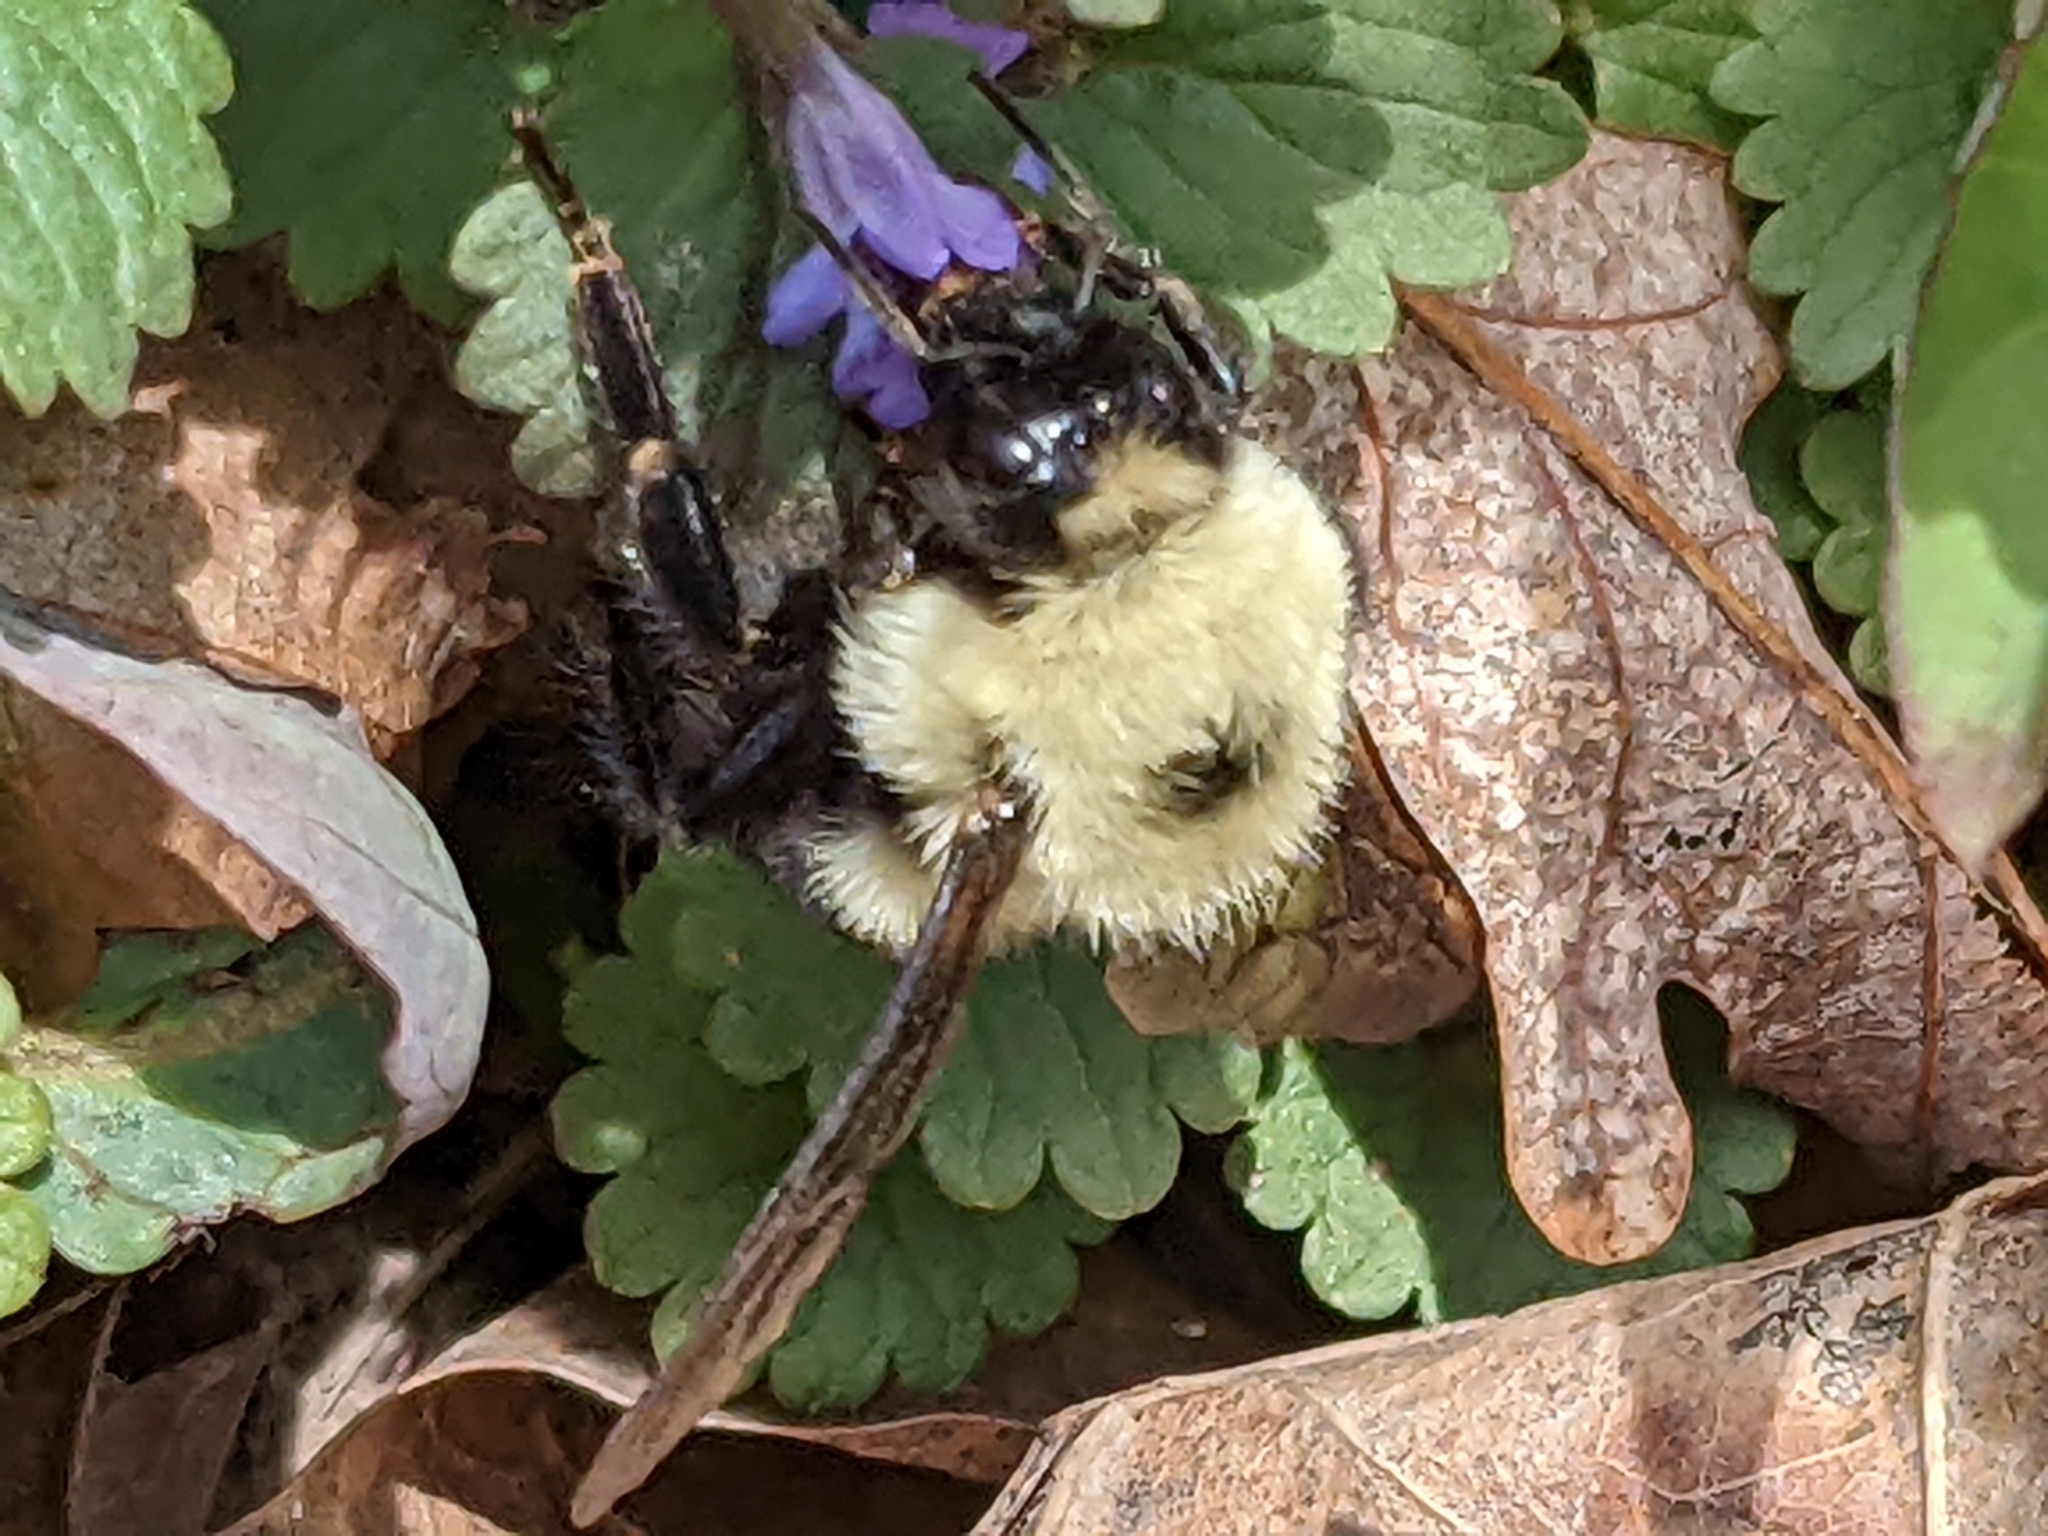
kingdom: Animalia
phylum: Arthropoda
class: Insecta
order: Hymenoptera
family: Apidae
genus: Bombus
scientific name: Bombus bimaculatus
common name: Two-spotted bumble bee
